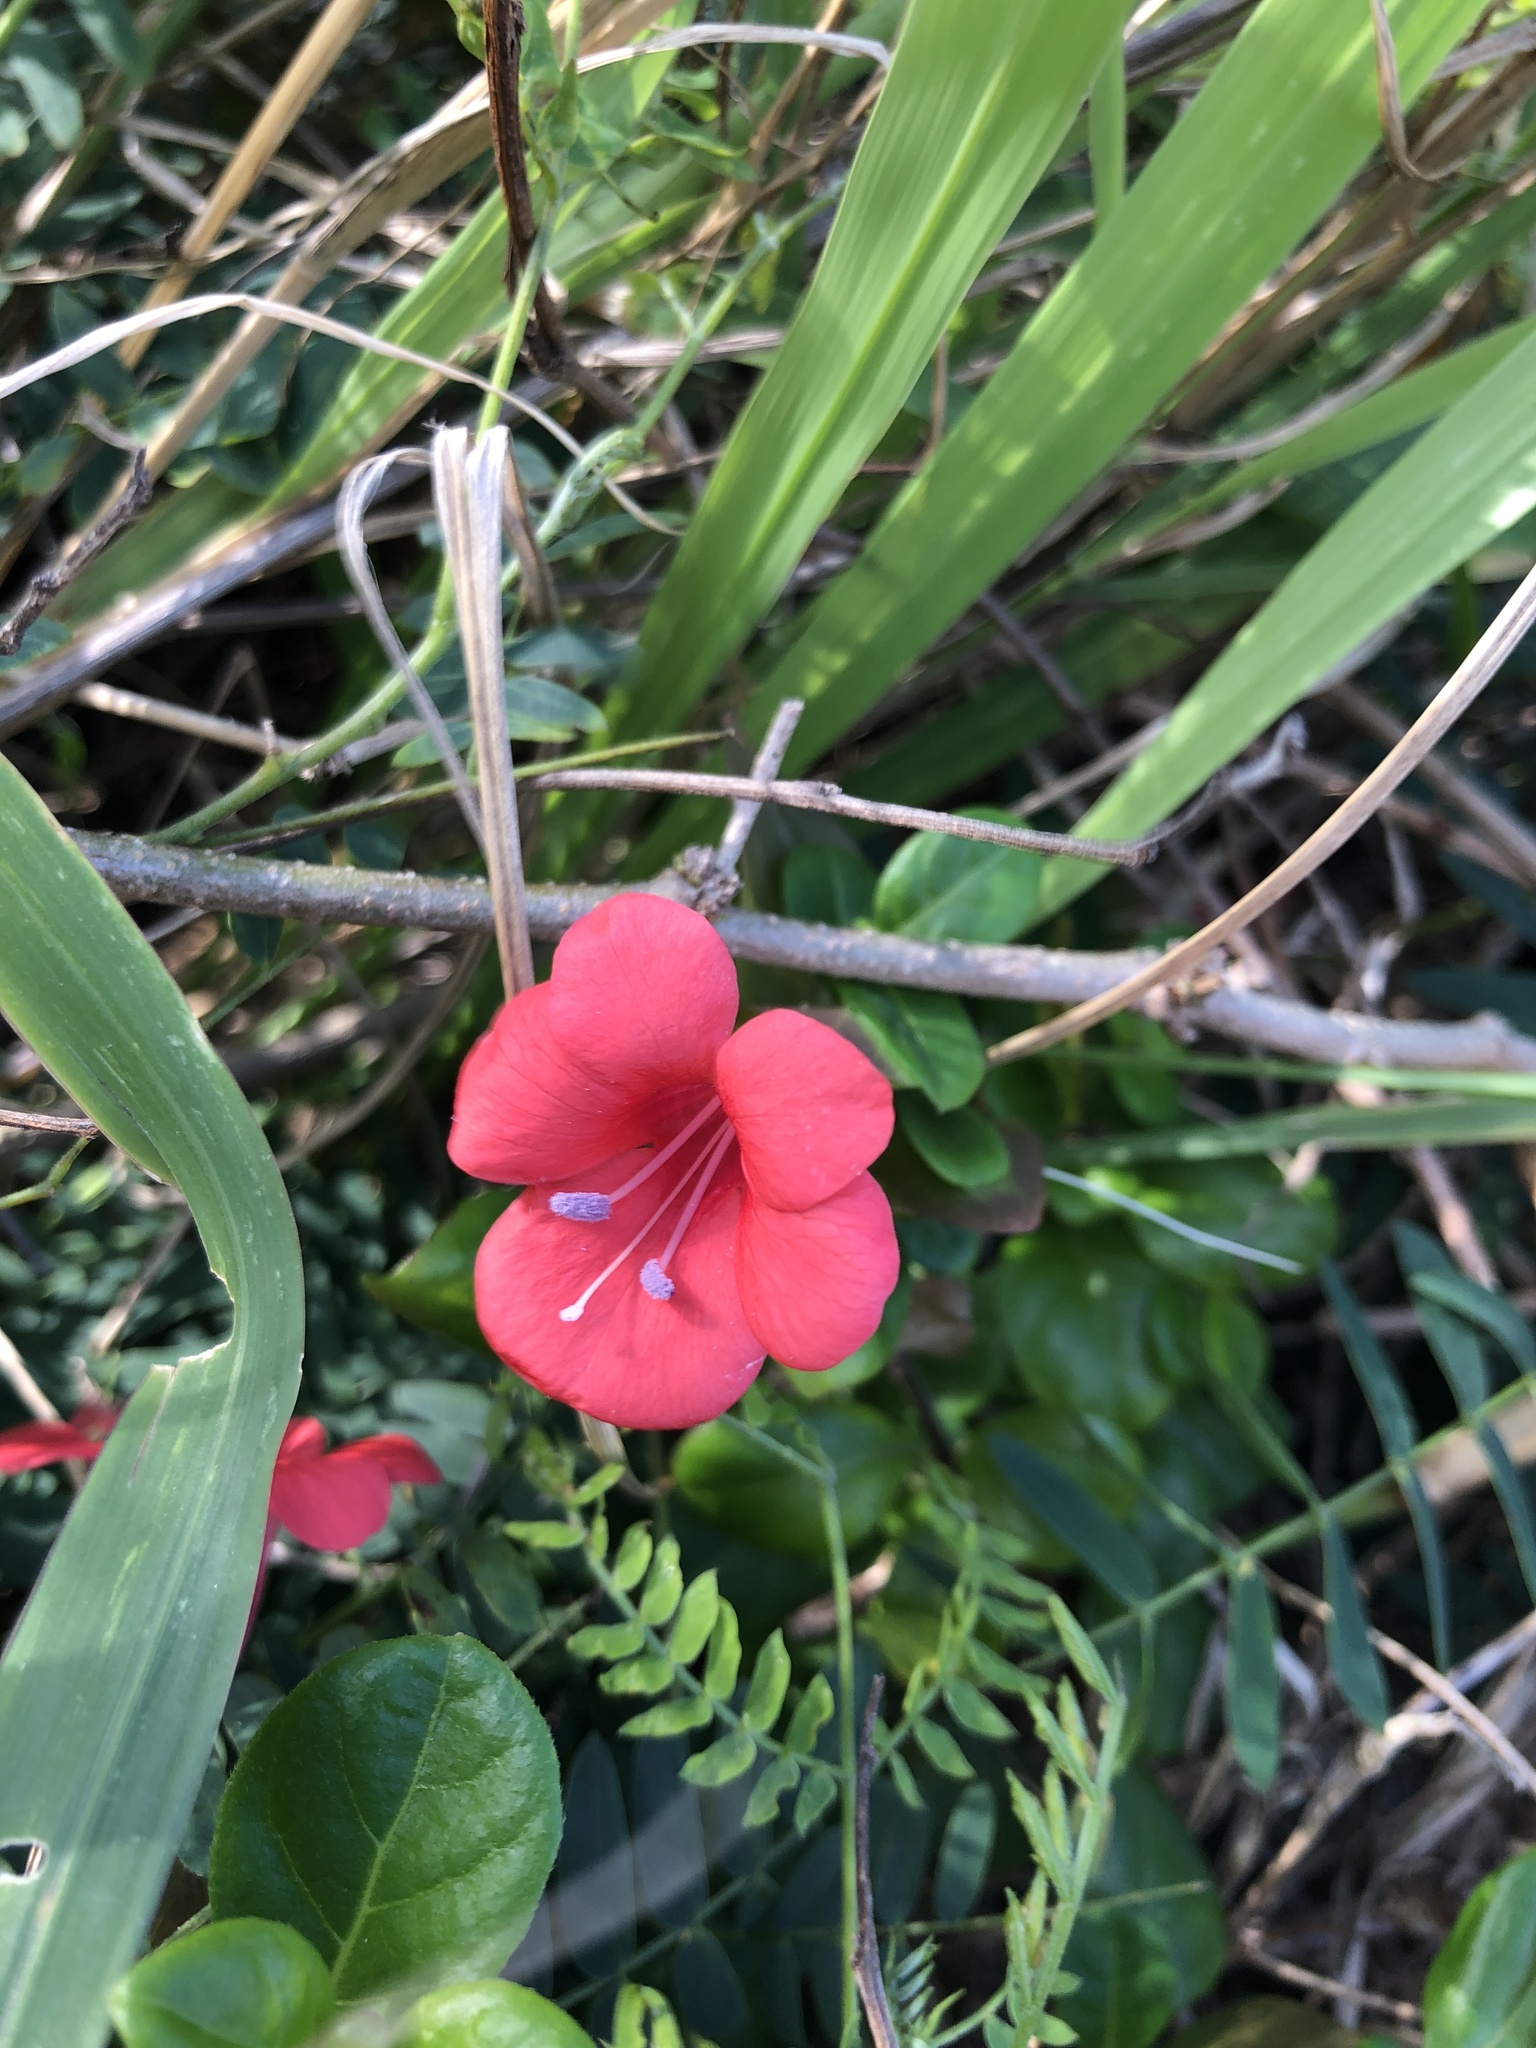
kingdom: Plantae
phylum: Tracheophyta
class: Magnoliopsida
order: Lamiales
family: Acanthaceae
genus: Barleria
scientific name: Barleria repens
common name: Pink-ruellia
